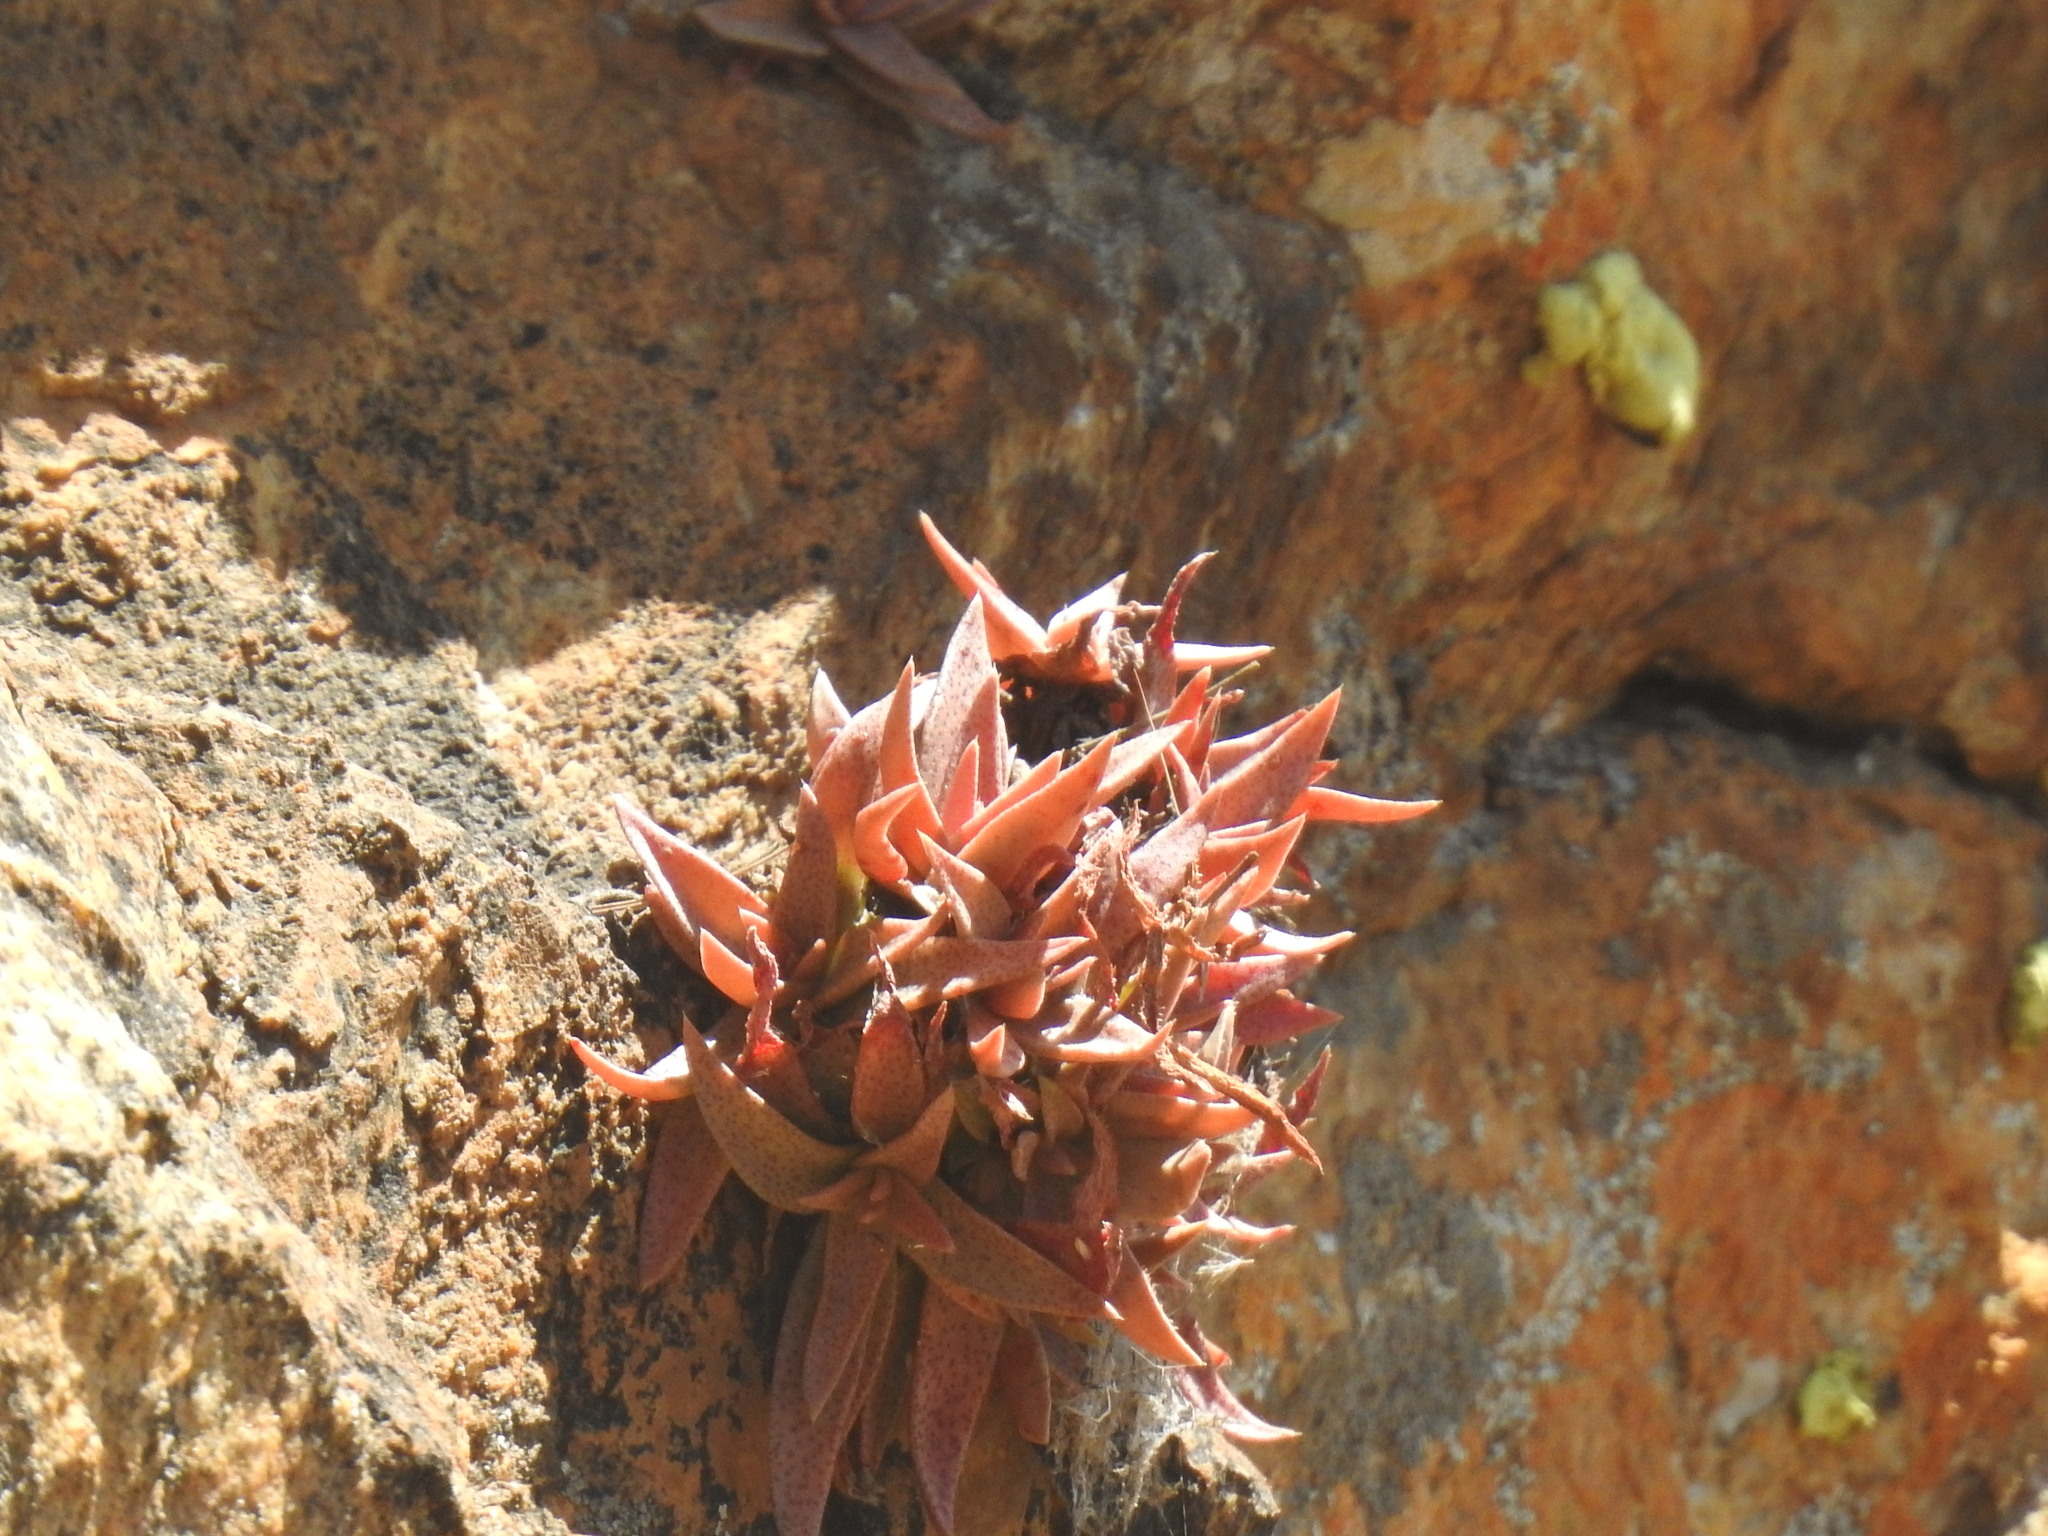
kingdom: Plantae
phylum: Tracheophyta
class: Magnoliopsida
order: Saxifragales
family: Crassulaceae
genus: Crassula
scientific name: Crassula setulosa
